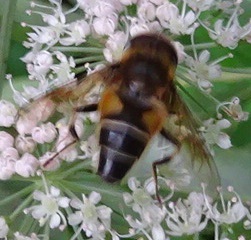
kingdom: Animalia
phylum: Arthropoda
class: Insecta
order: Diptera
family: Syrphidae
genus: Eristalis
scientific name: Eristalis pertinax
